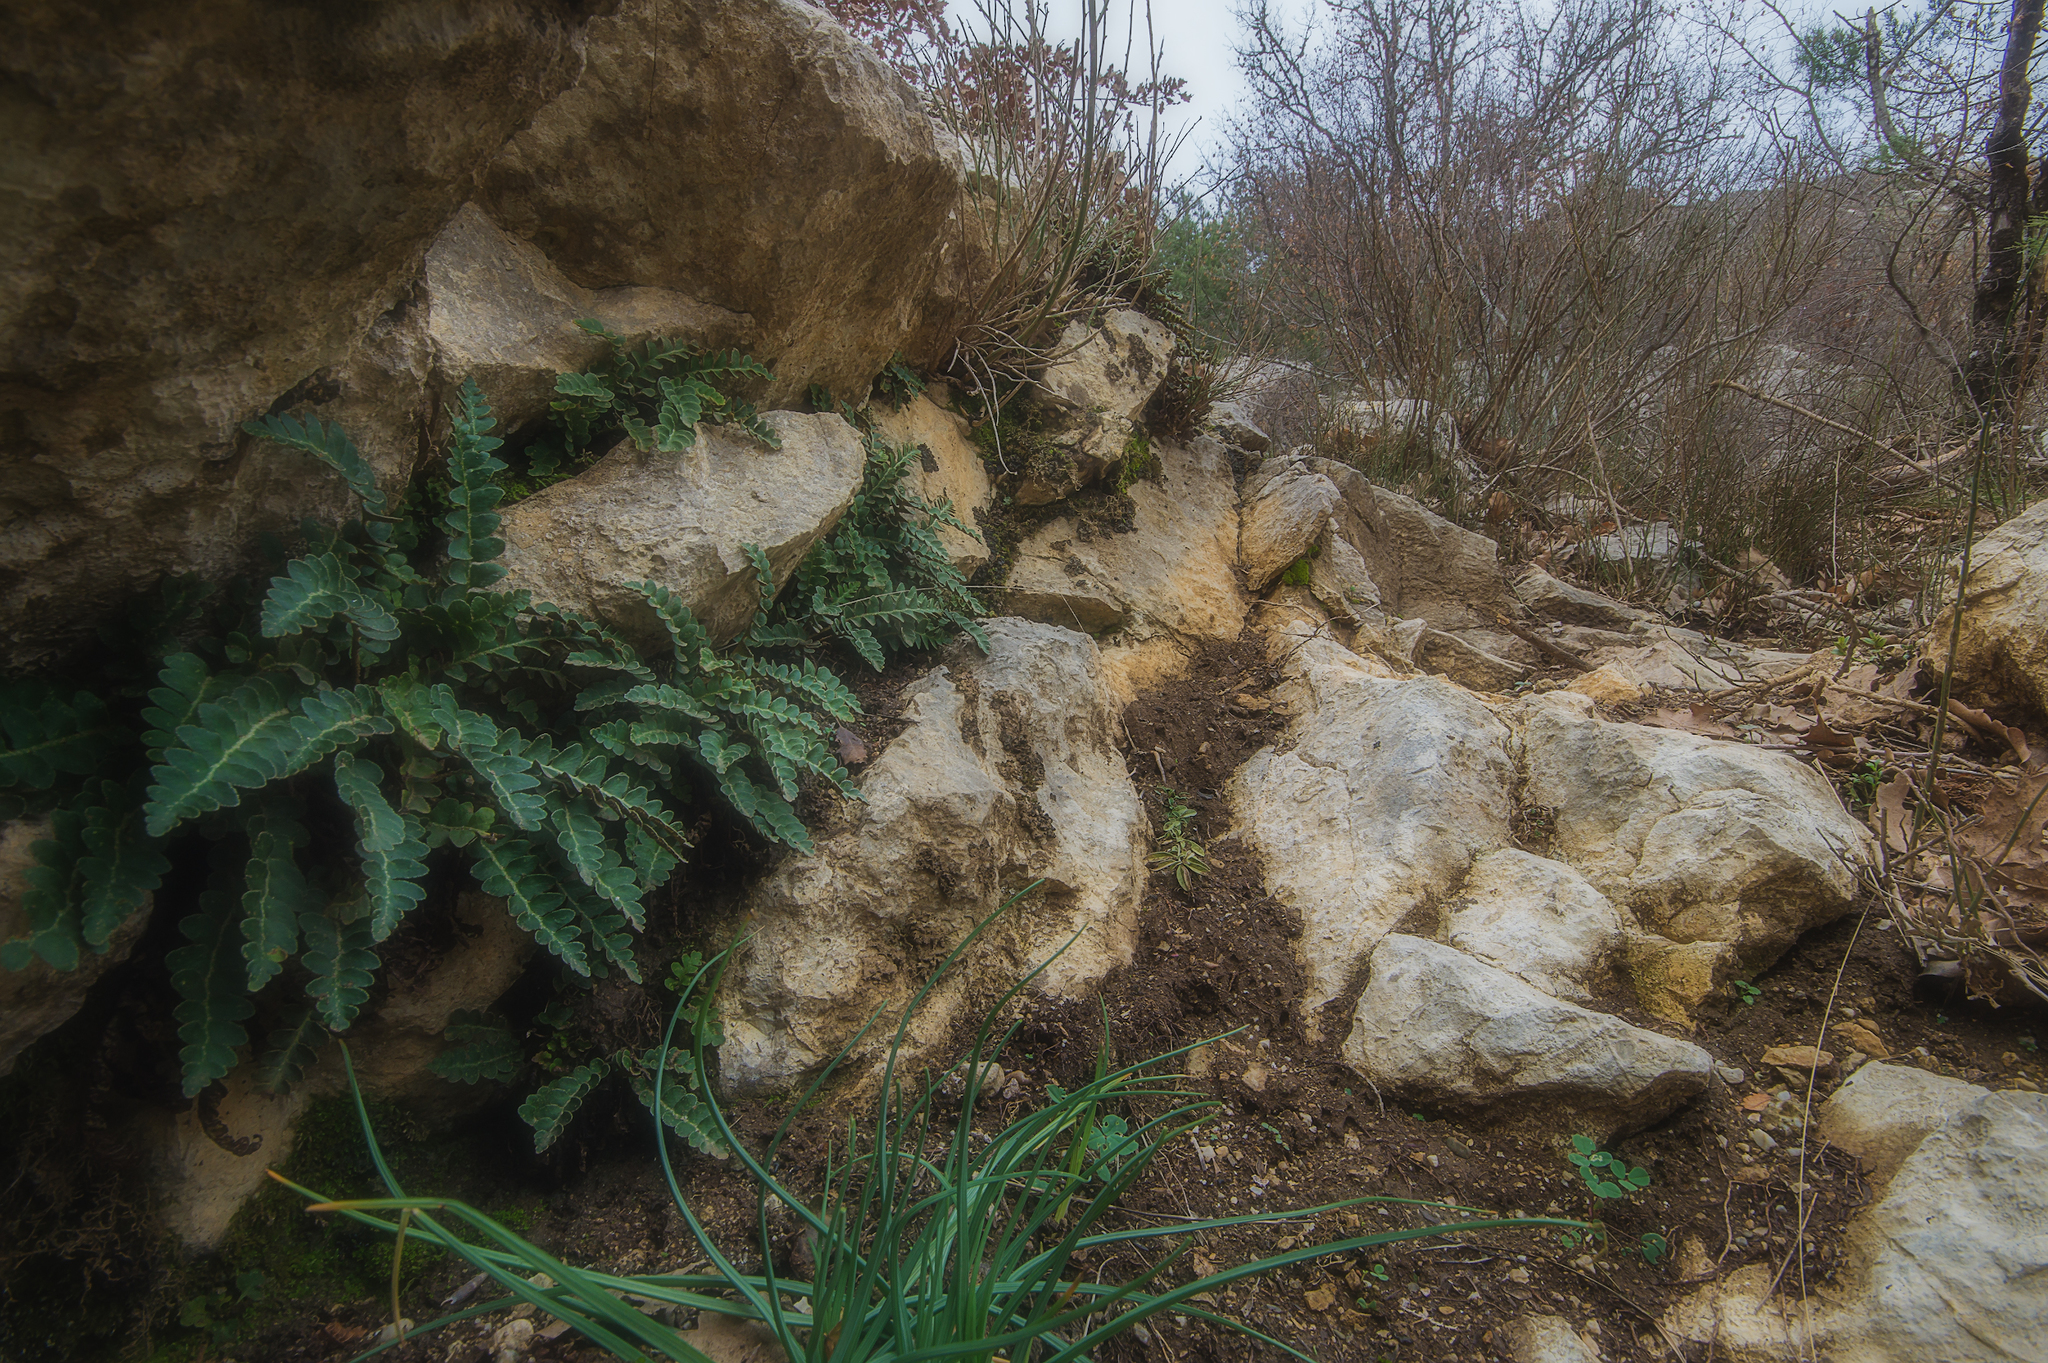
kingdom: Plantae
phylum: Tracheophyta
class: Polypodiopsida
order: Polypodiales
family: Aspleniaceae
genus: Asplenium
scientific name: Asplenium ceterach
